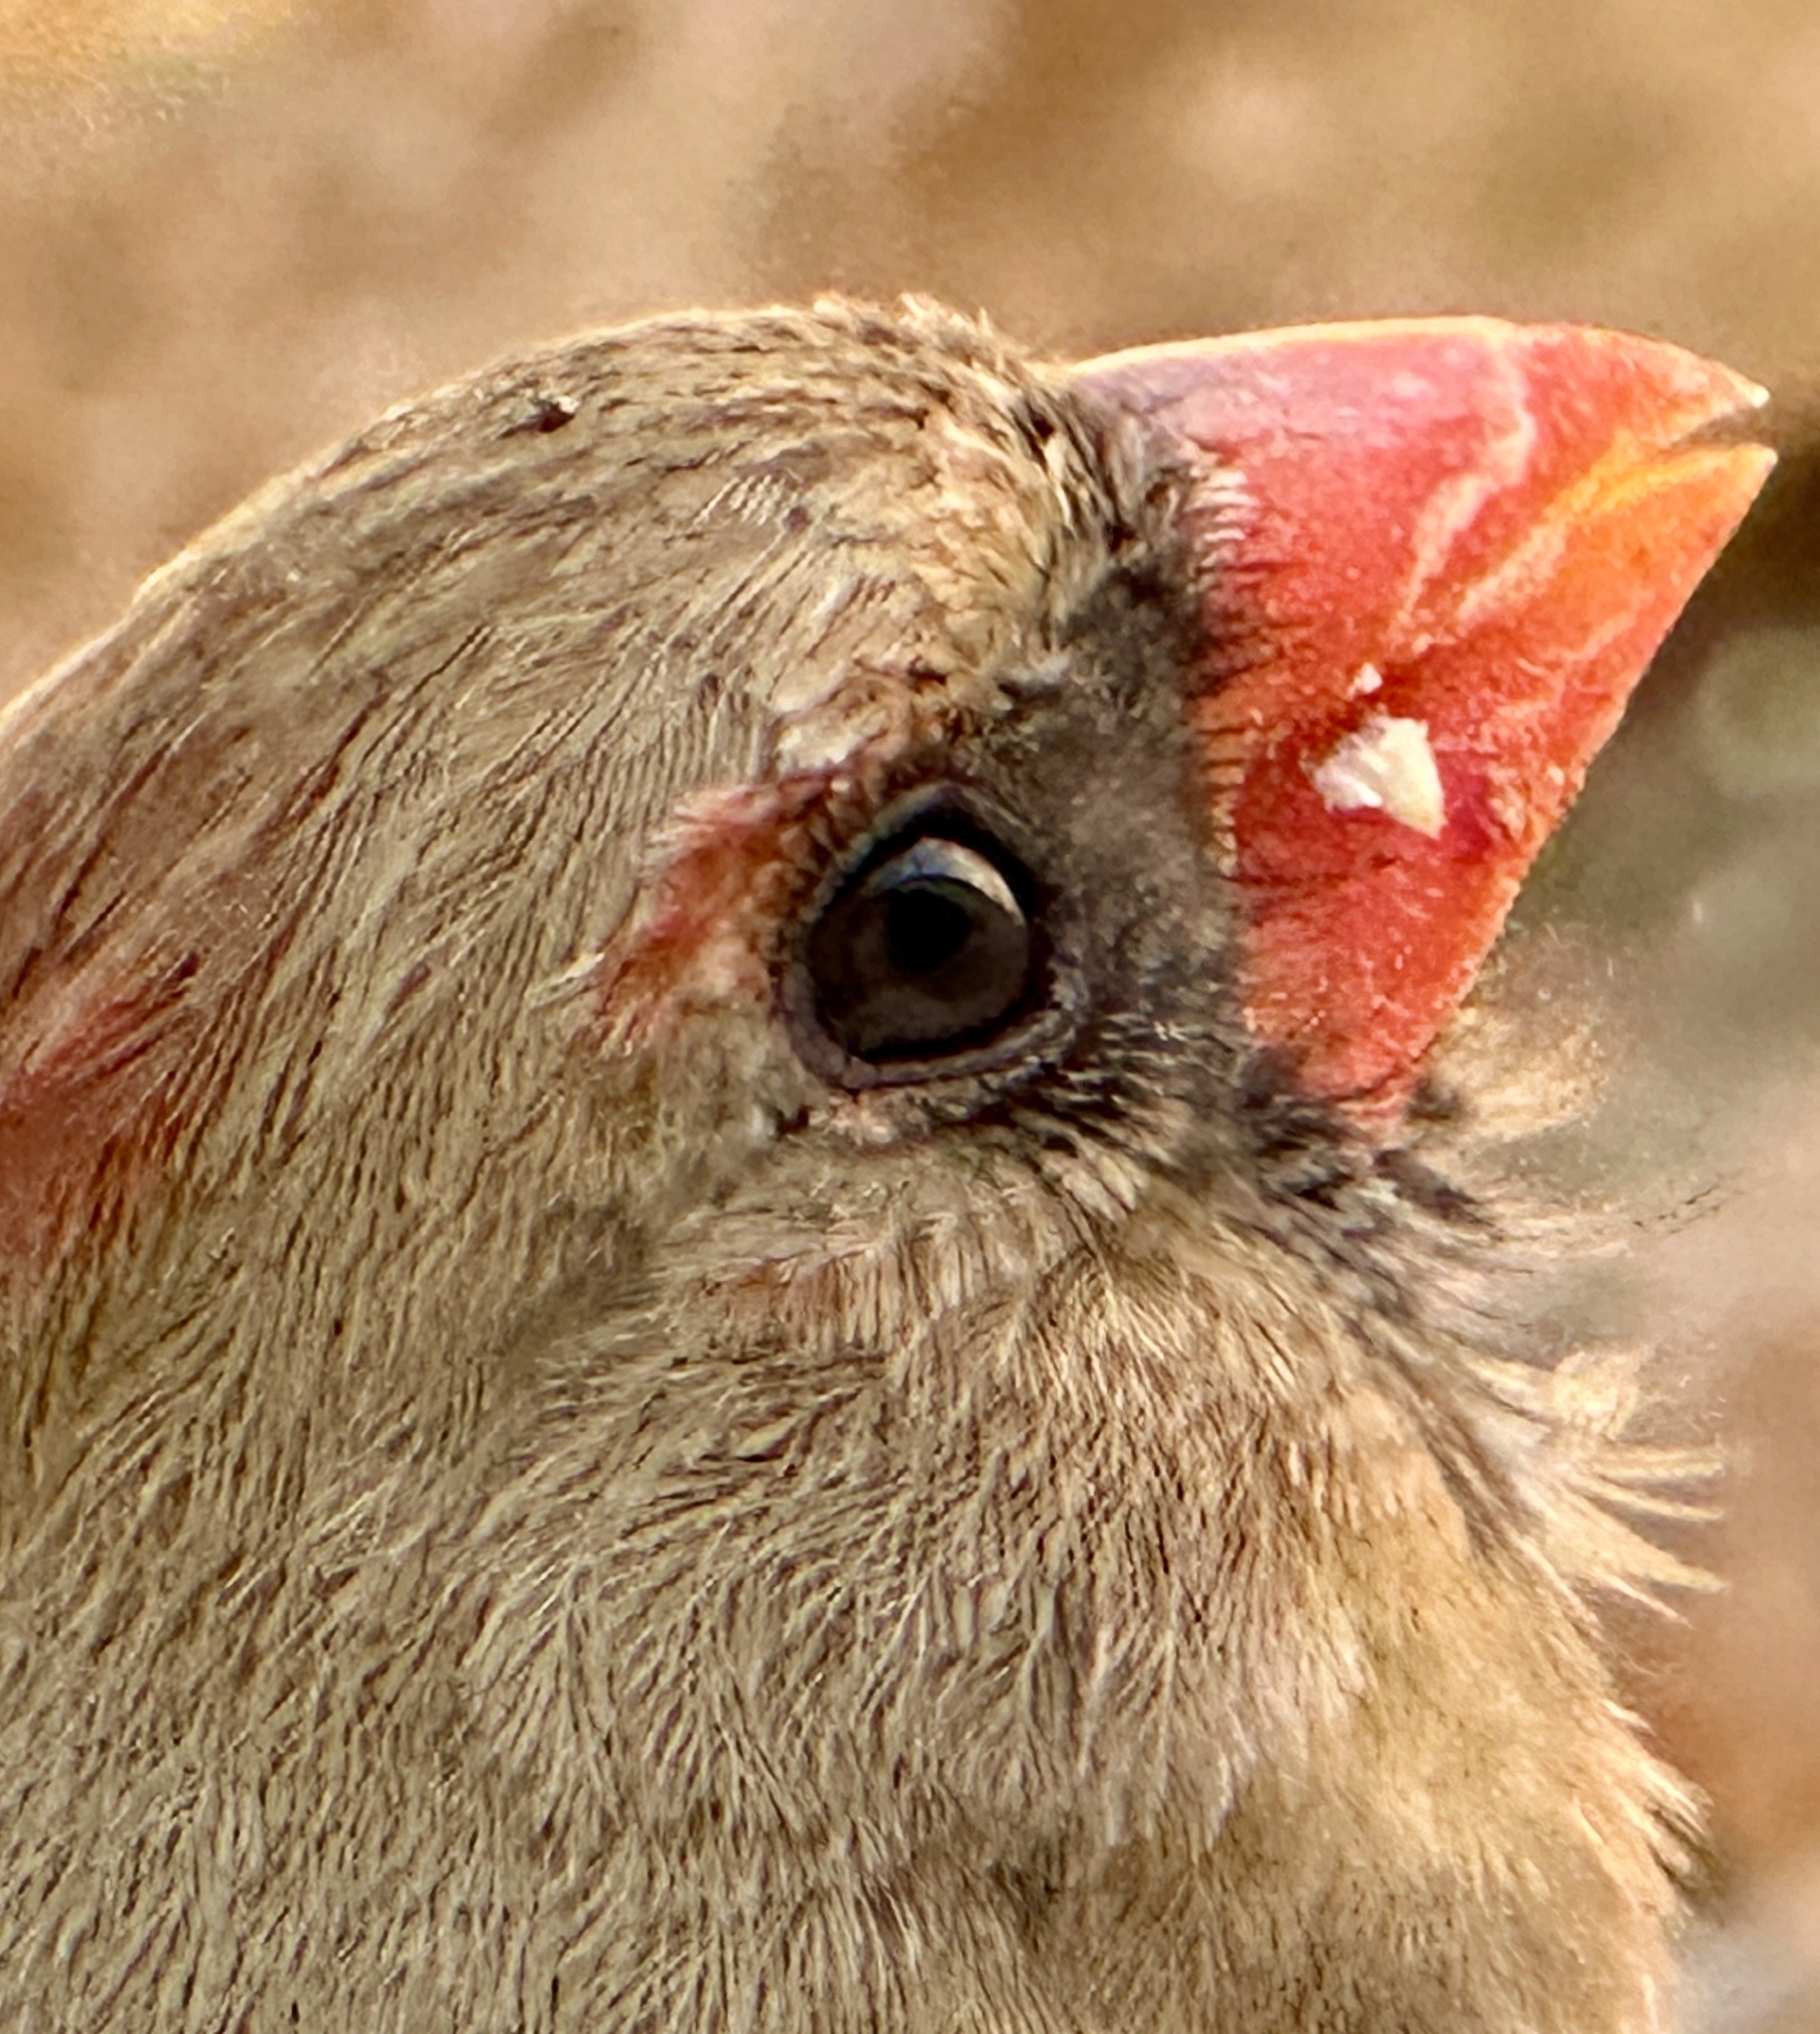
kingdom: Animalia
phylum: Chordata
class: Aves
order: Passeriformes
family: Cardinalidae
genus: Cardinalis
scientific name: Cardinalis cardinalis
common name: Northern cardinal
